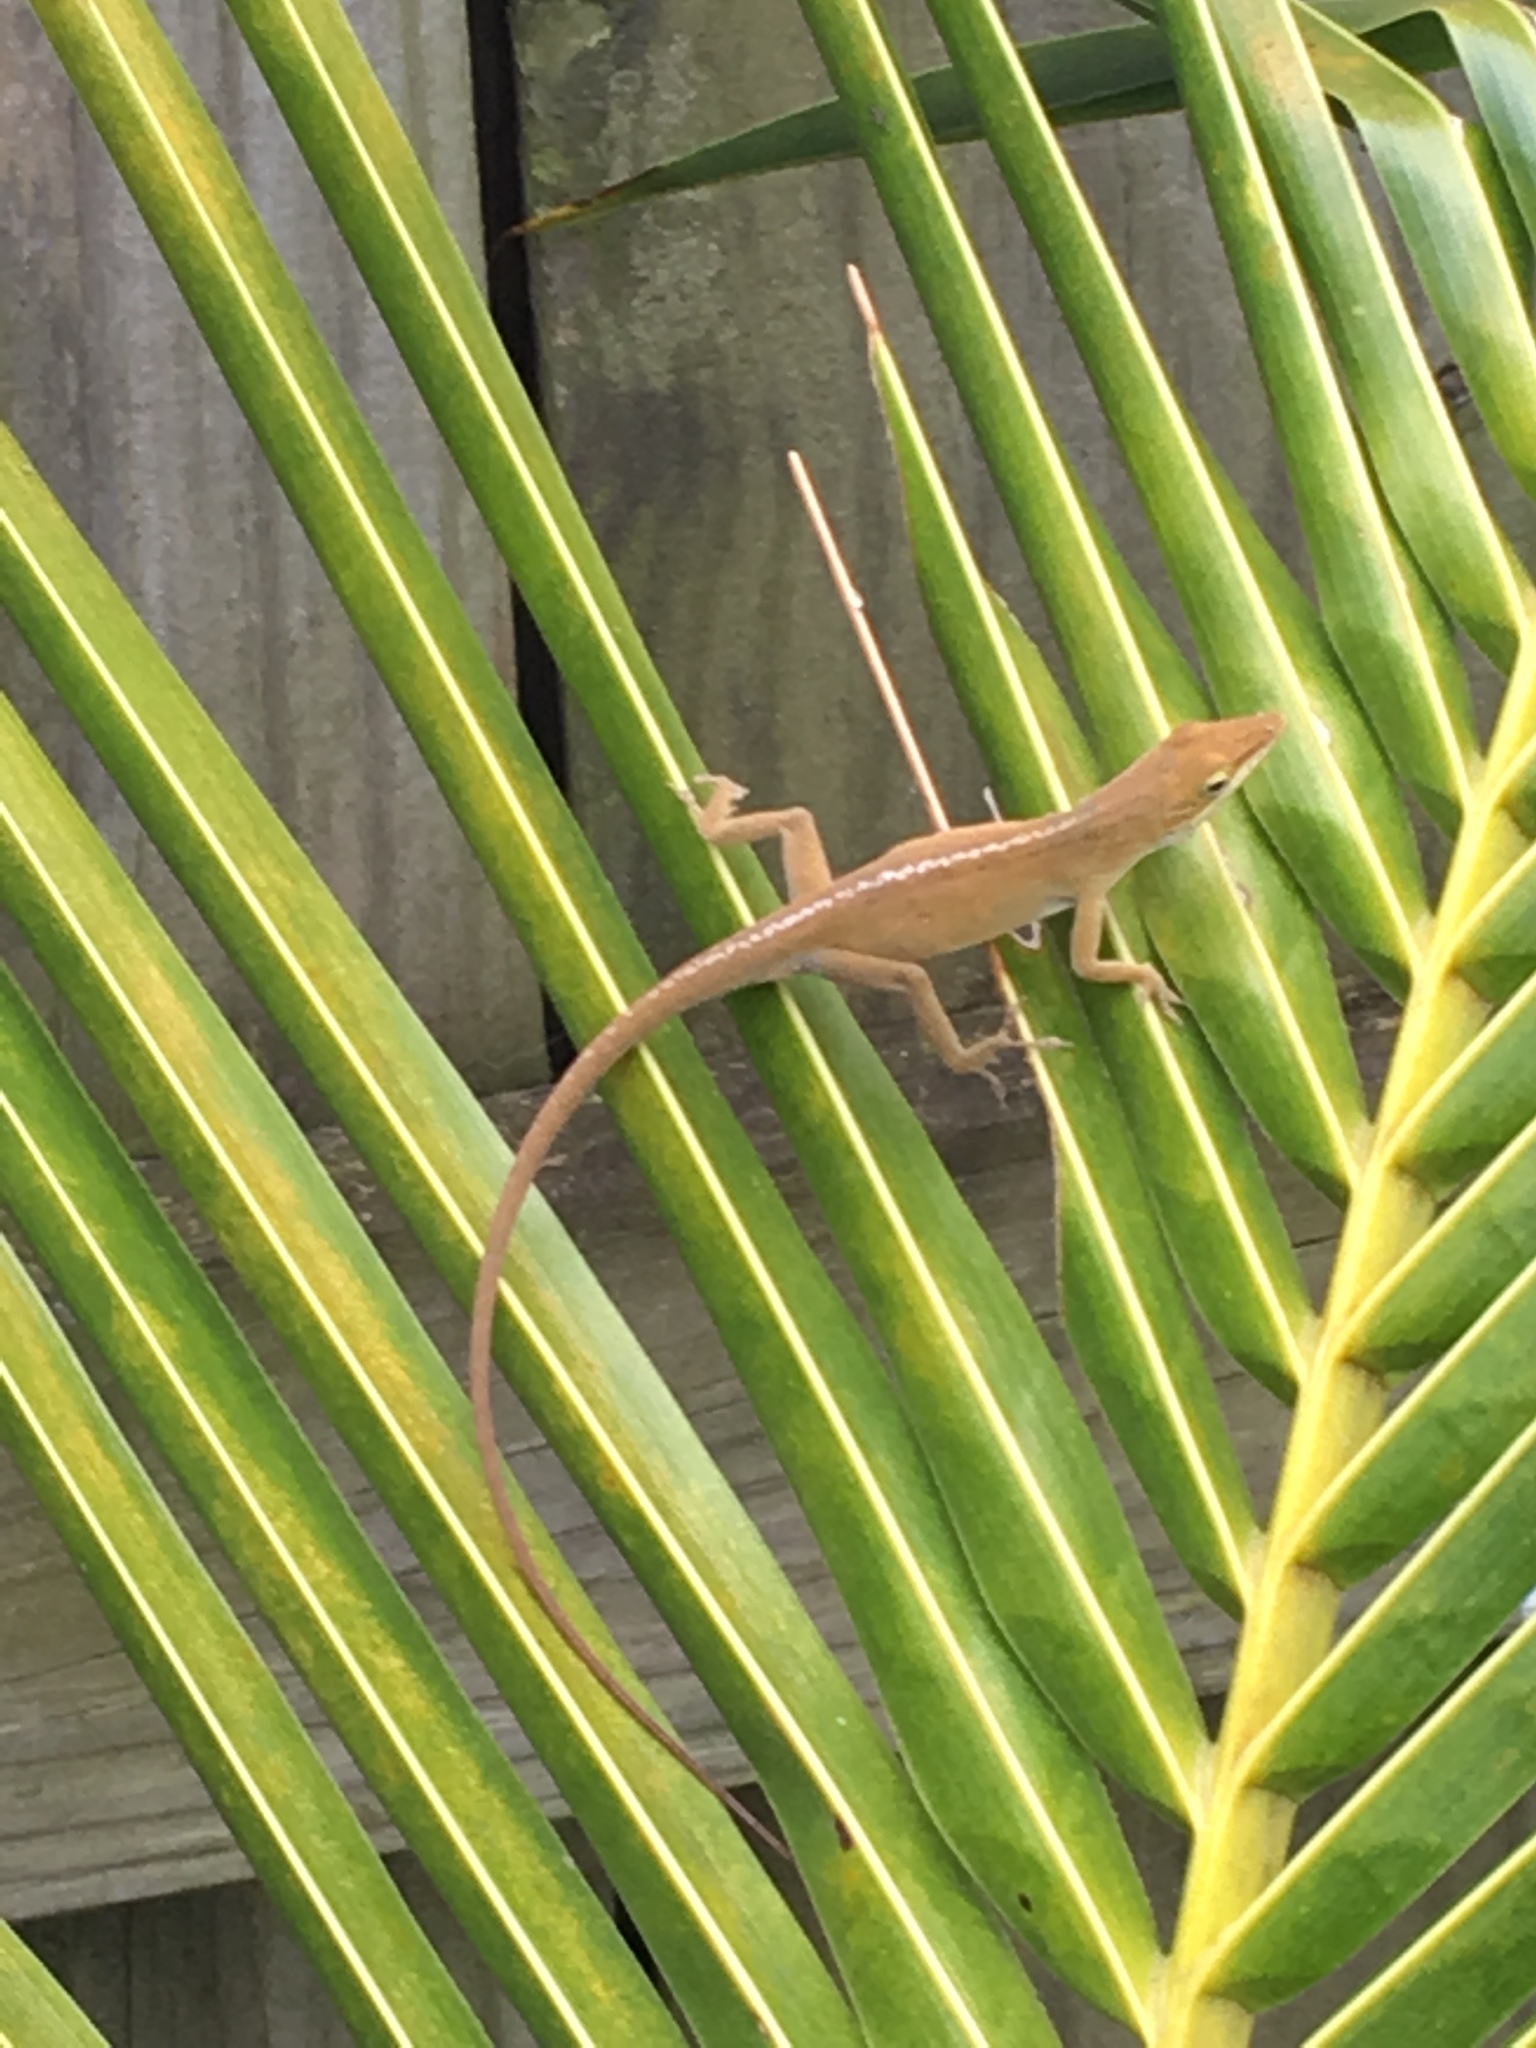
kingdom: Animalia
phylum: Chordata
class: Squamata
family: Dactyloidae
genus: Anolis
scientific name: Anolis carolinensis
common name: Green anole
